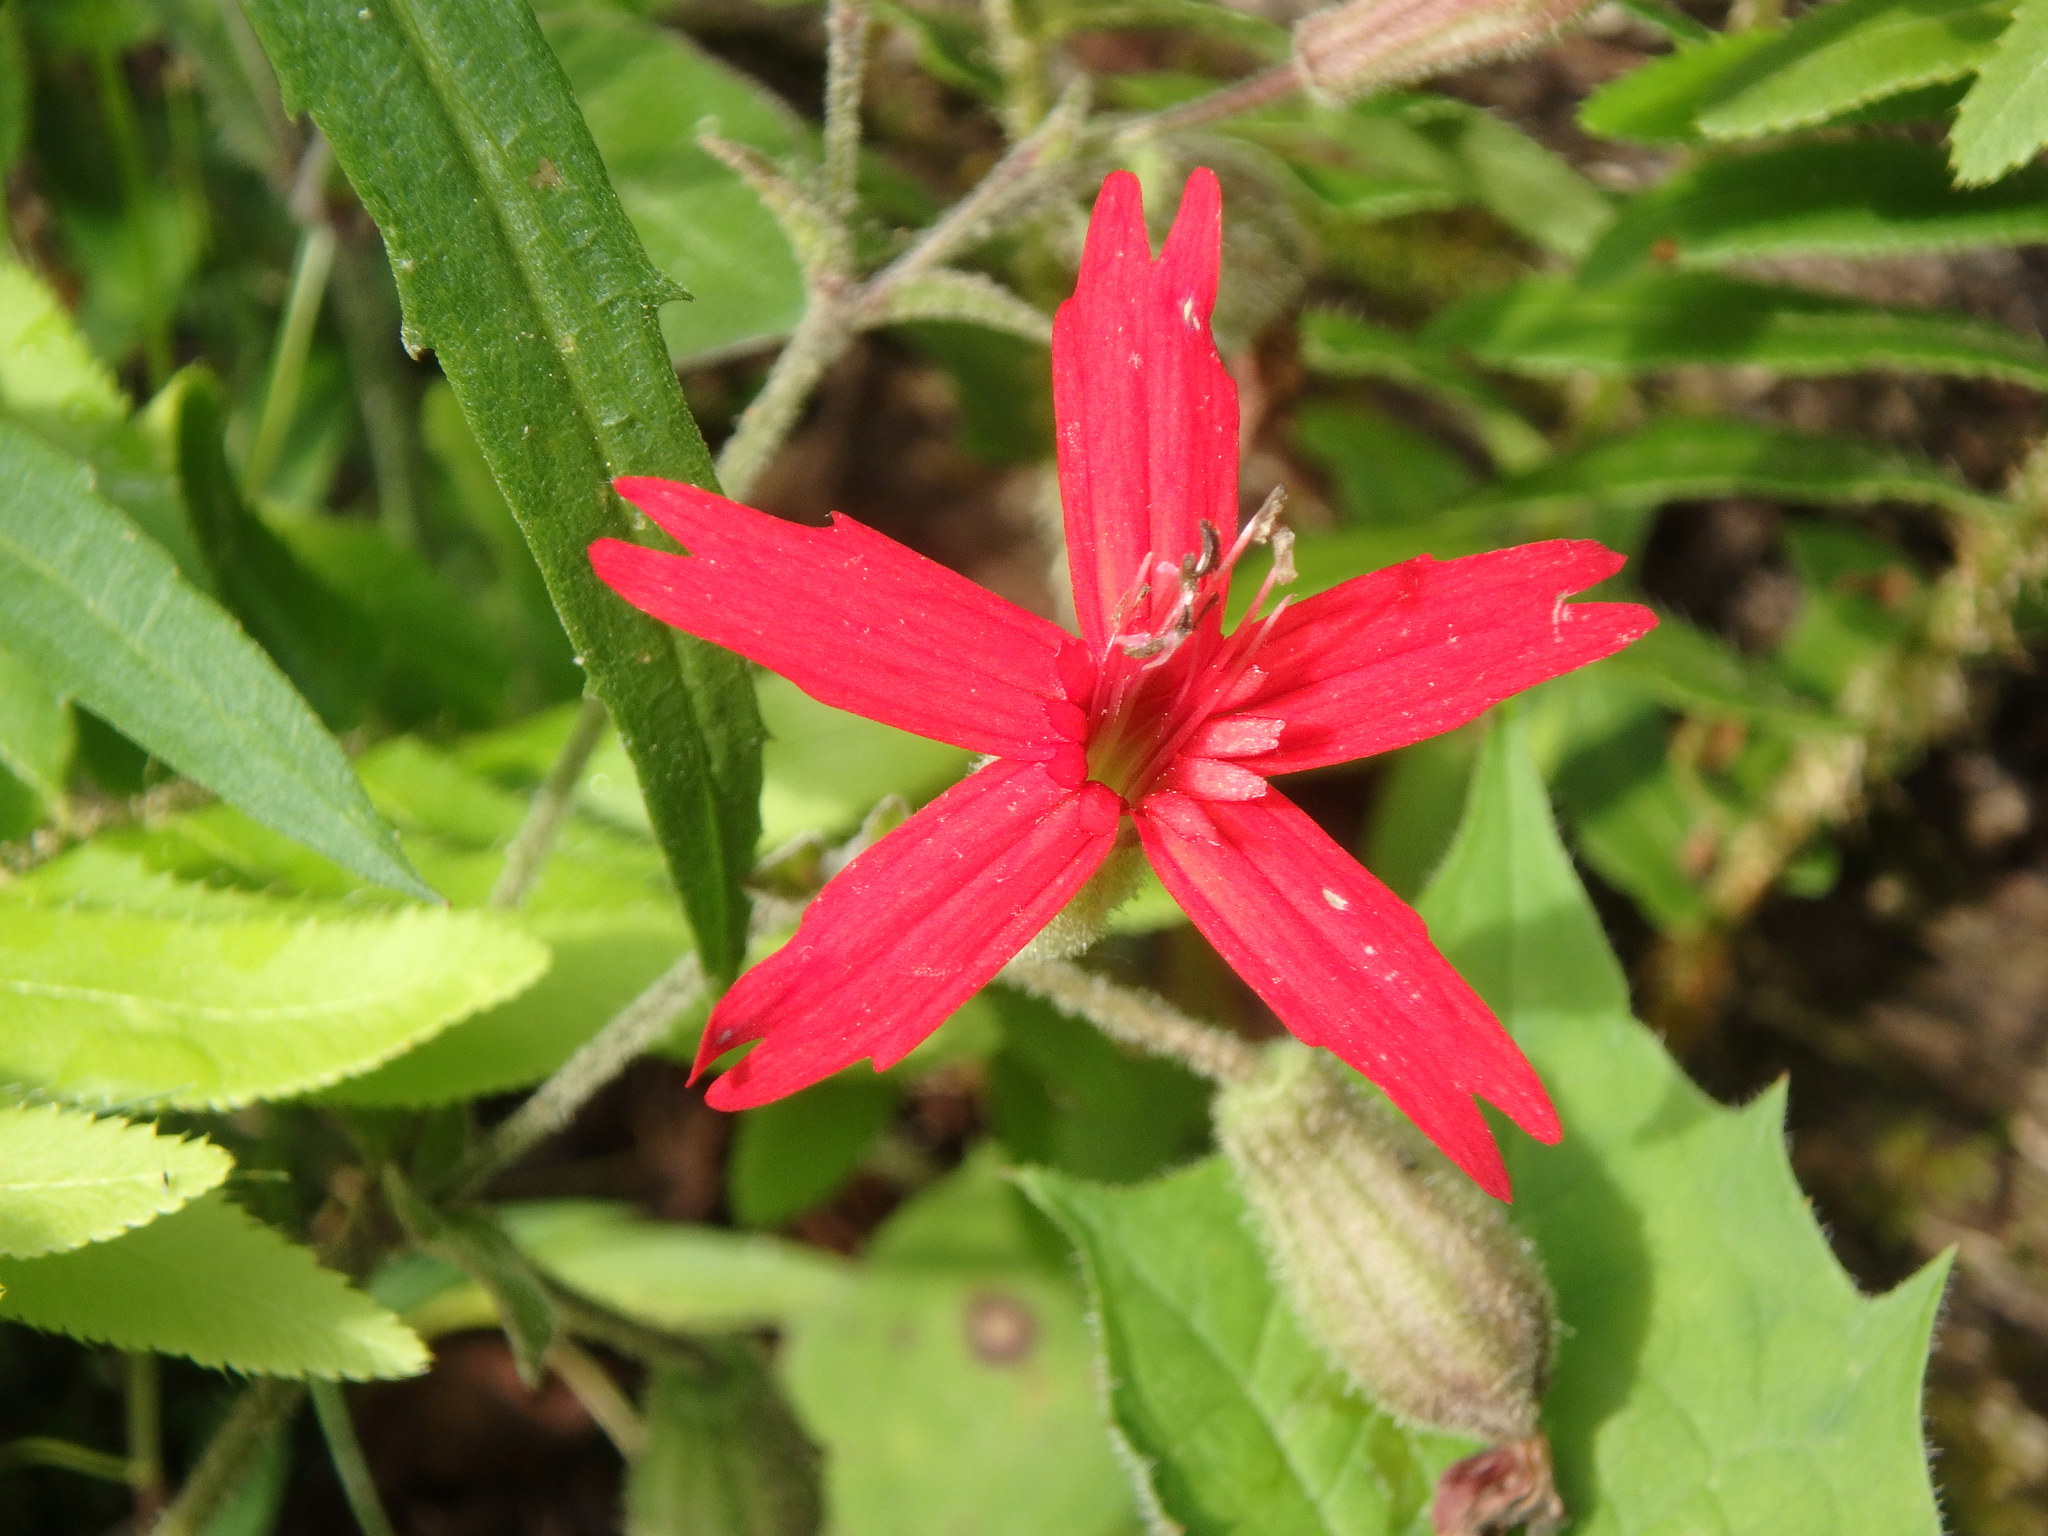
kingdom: Plantae
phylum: Tracheophyta
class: Magnoliopsida
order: Caryophyllales
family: Caryophyllaceae
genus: Silene
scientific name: Silene virginica
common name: Fire-pink
